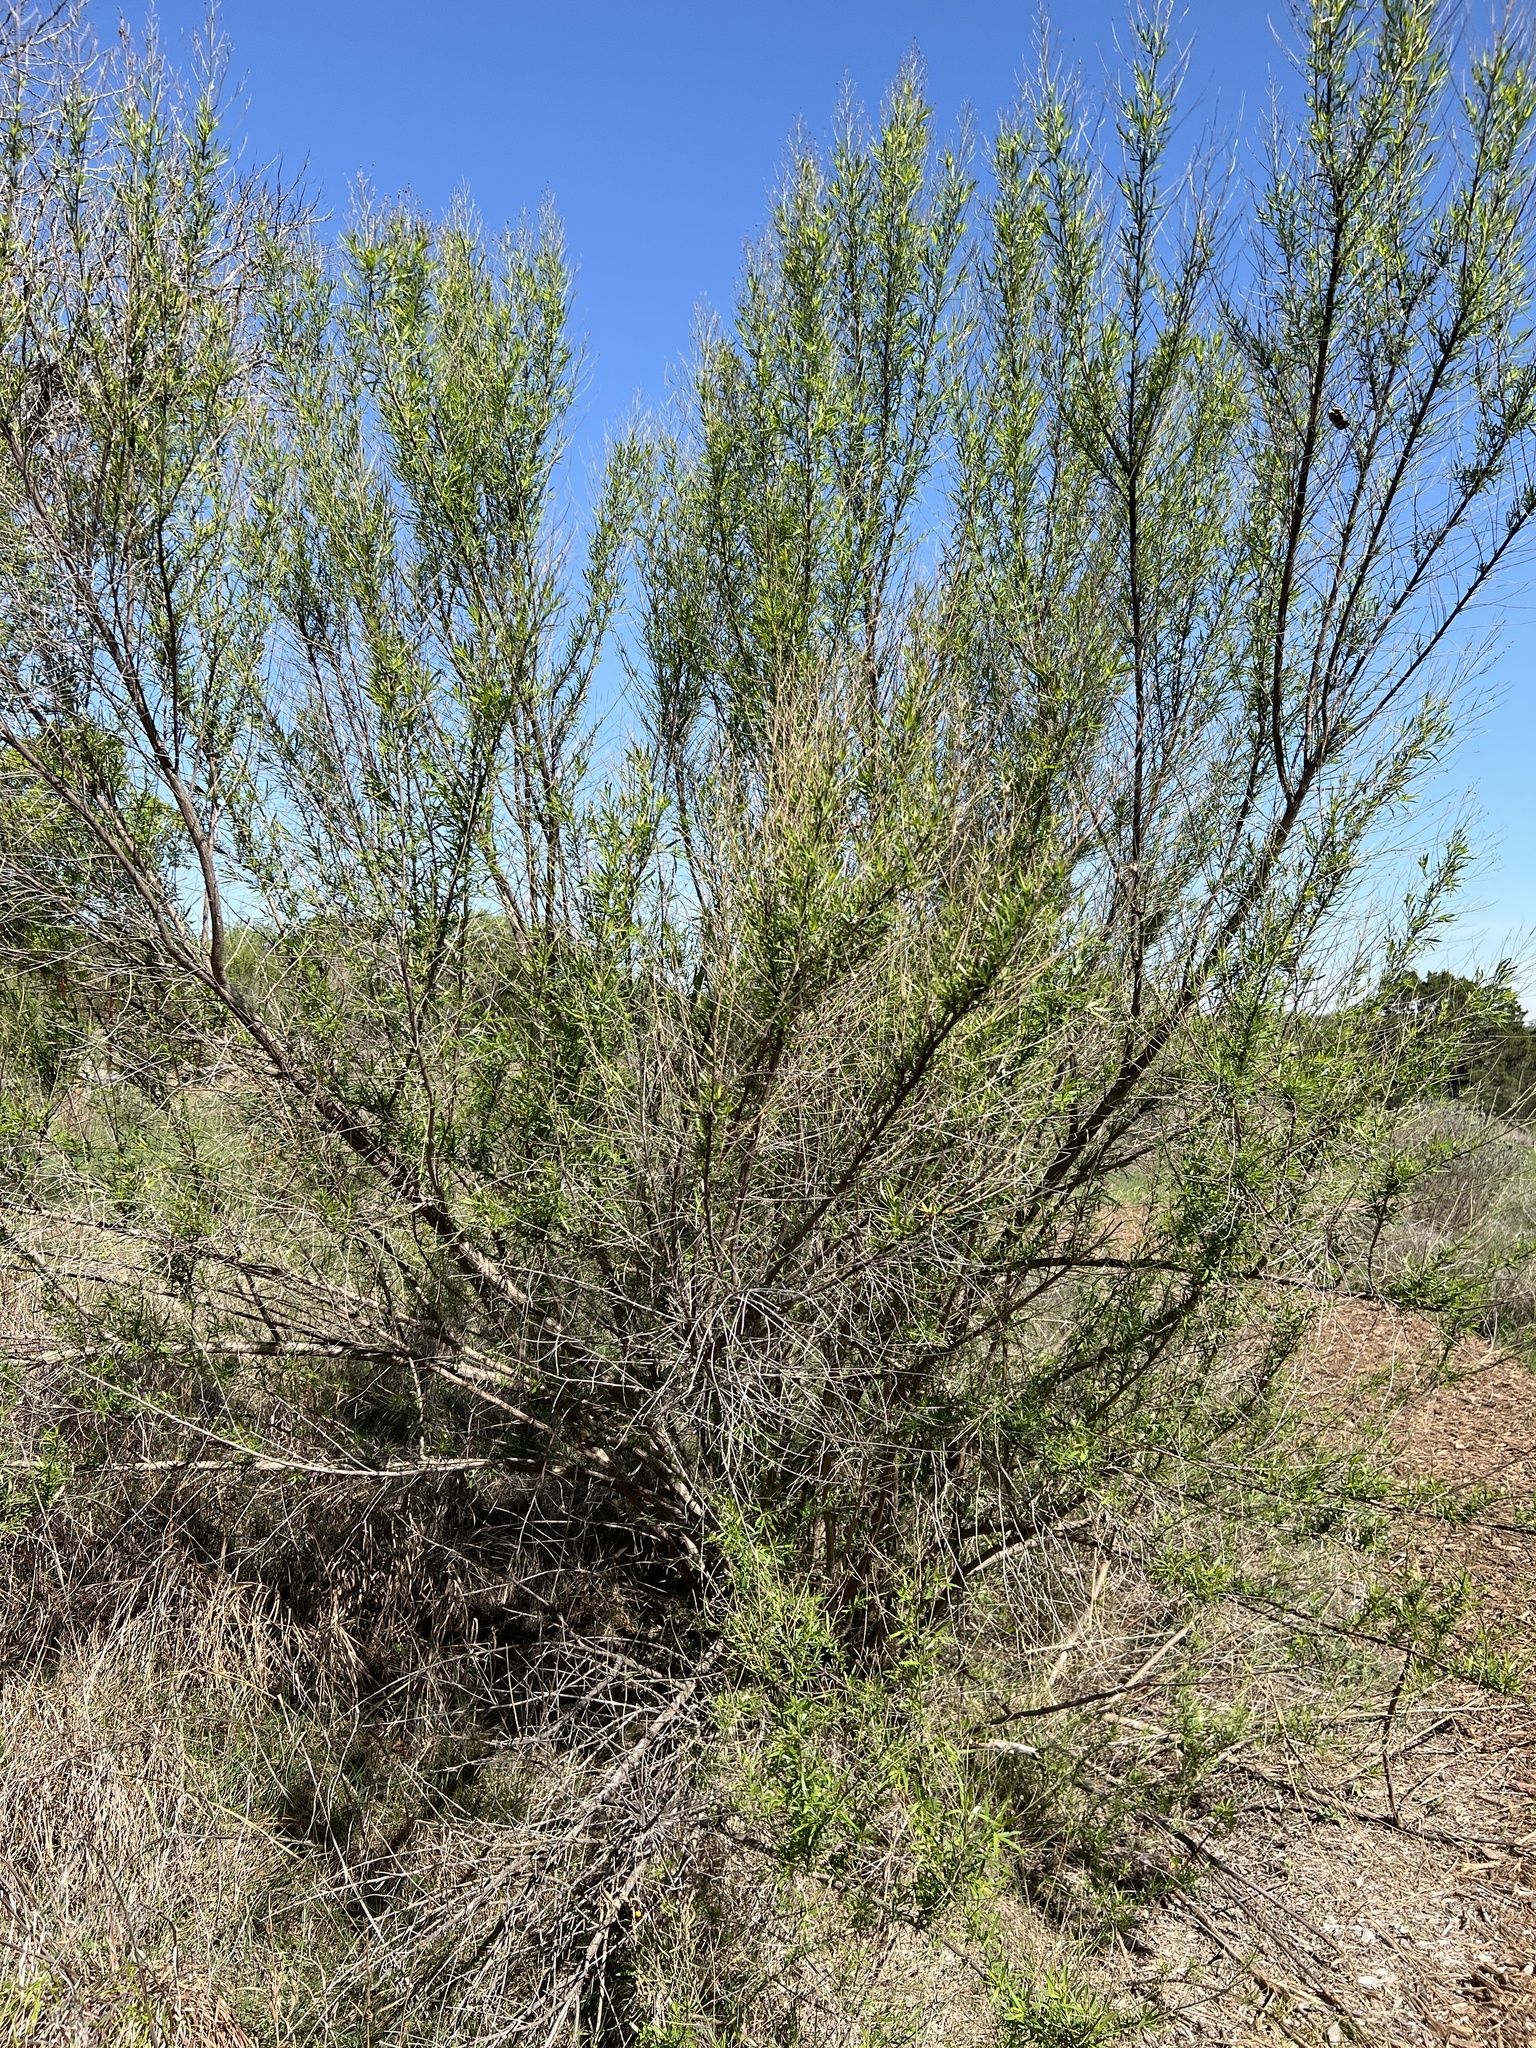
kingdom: Plantae
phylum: Tracheophyta
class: Magnoliopsida
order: Asterales
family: Asteraceae
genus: Baccharis
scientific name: Baccharis neglecta
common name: Roosevelt-weed
